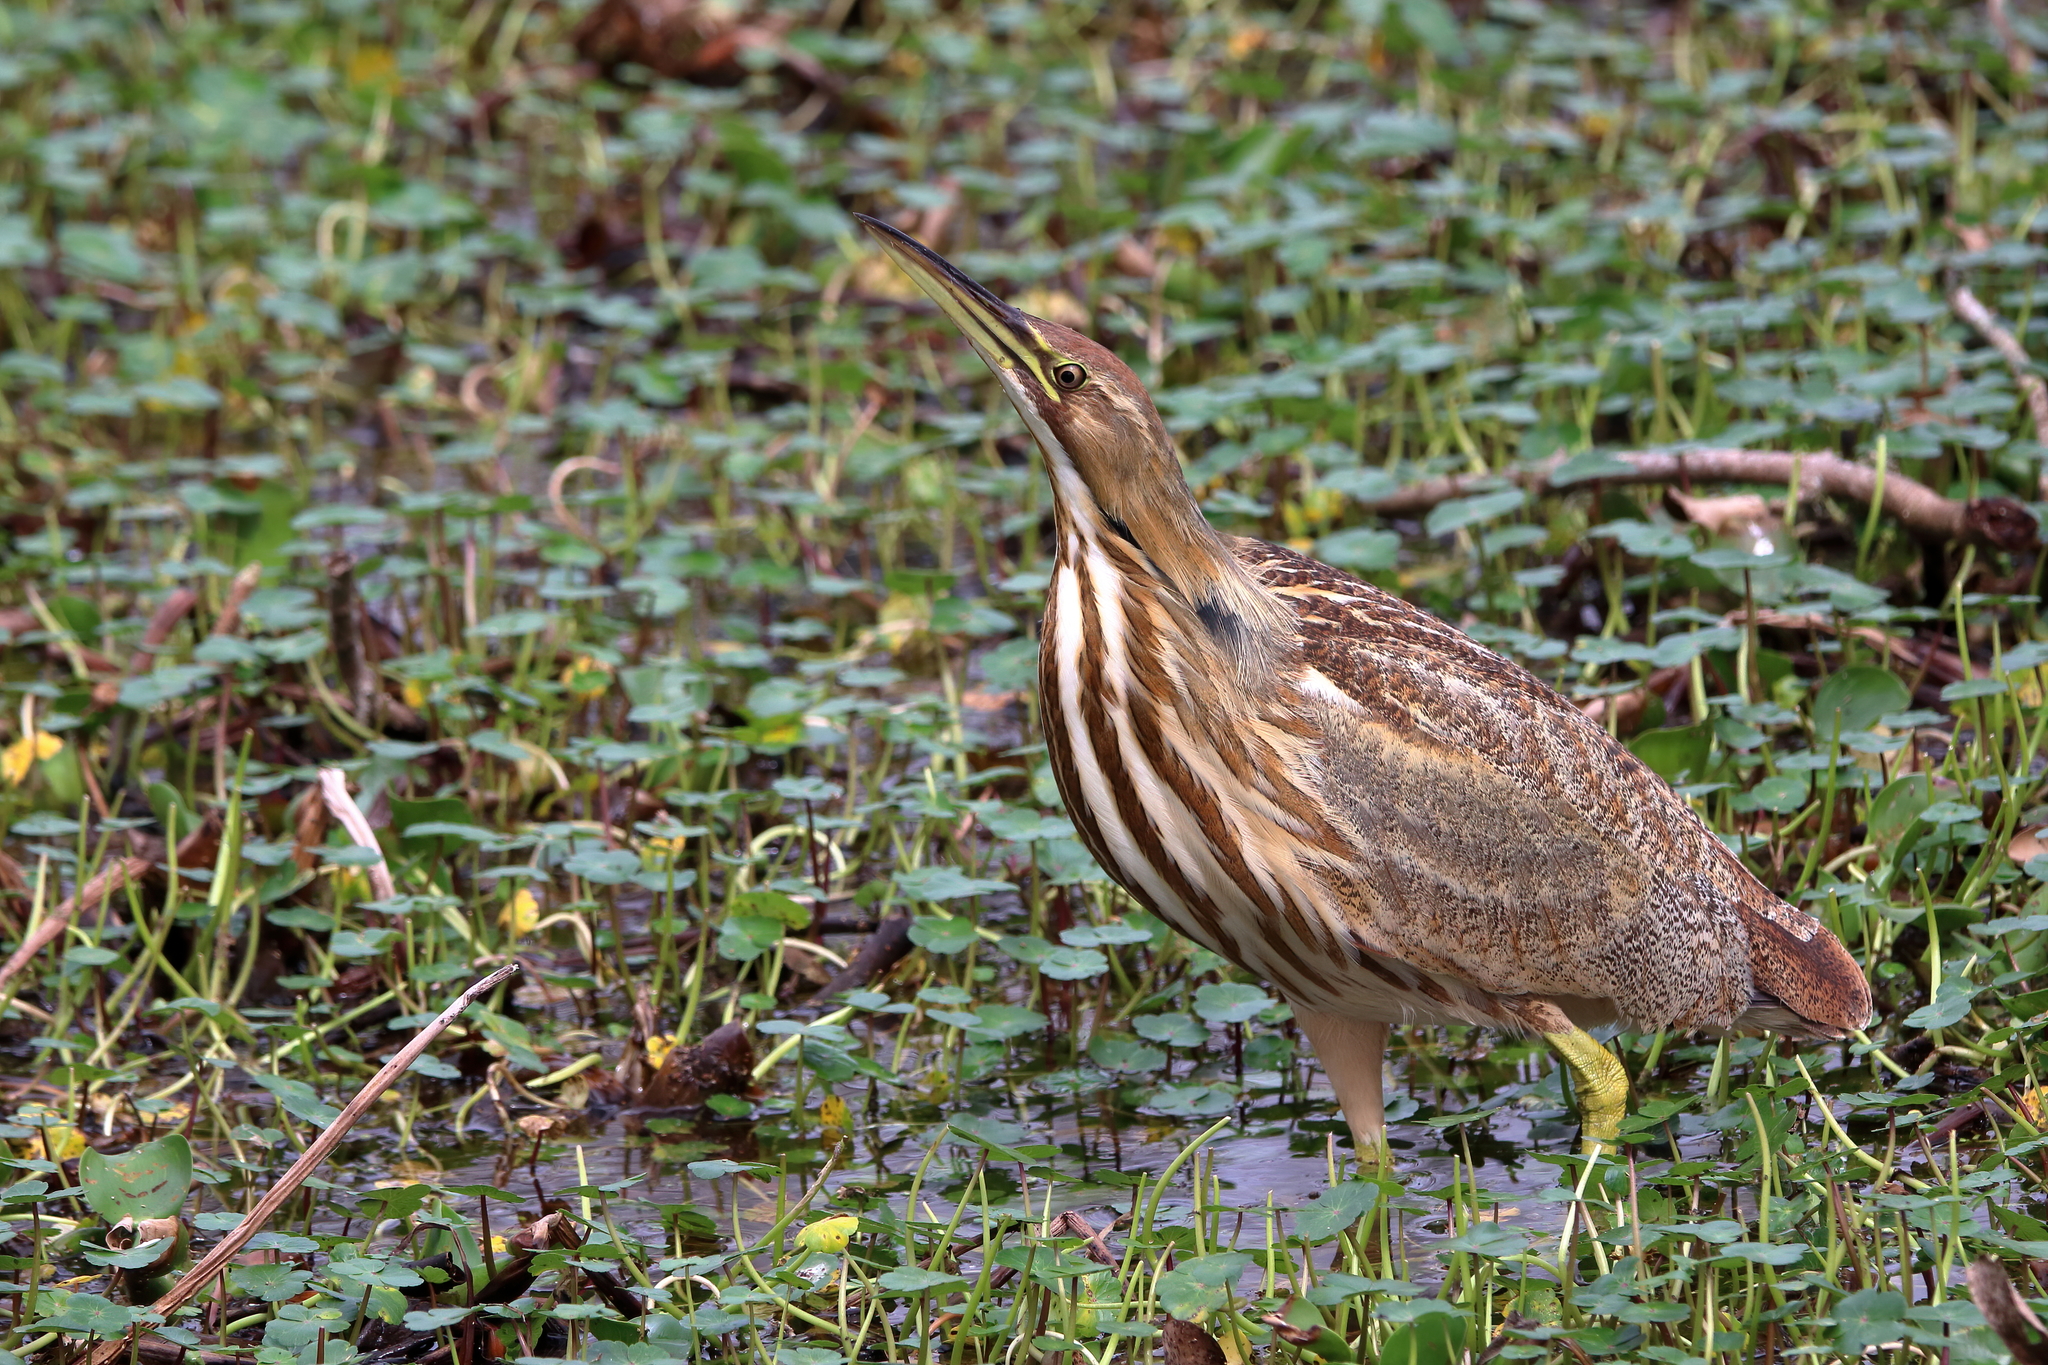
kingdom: Animalia
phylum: Chordata
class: Aves
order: Pelecaniformes
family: Ardeidae
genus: Botaurus
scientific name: Botaurus lentiginosus
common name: American bittern
